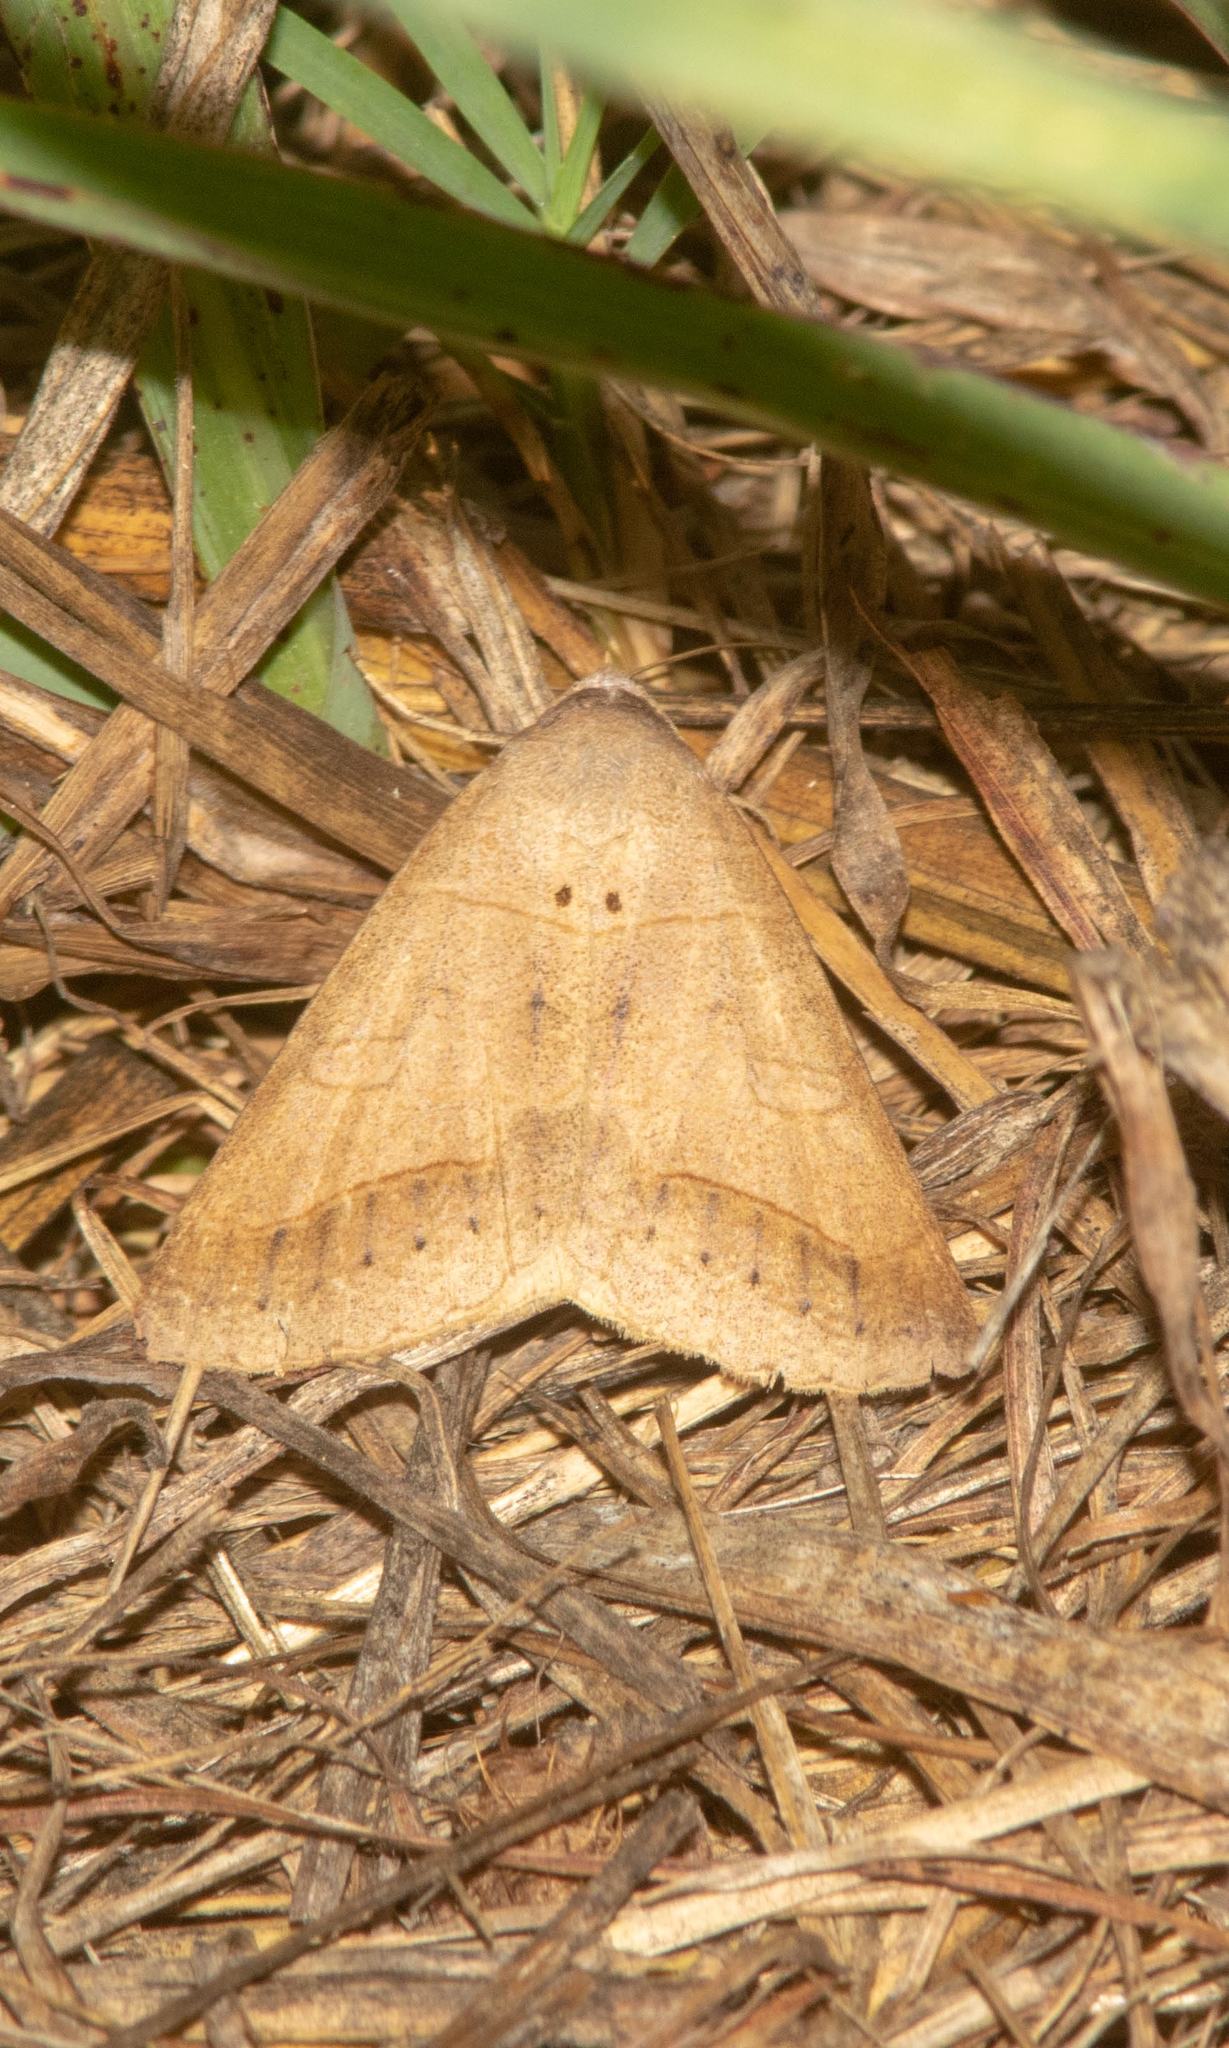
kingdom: Animalia
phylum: Arthropoda
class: Insecta
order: Lepidoptera
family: Erebidae
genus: Mocis
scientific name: Mocis marcida
